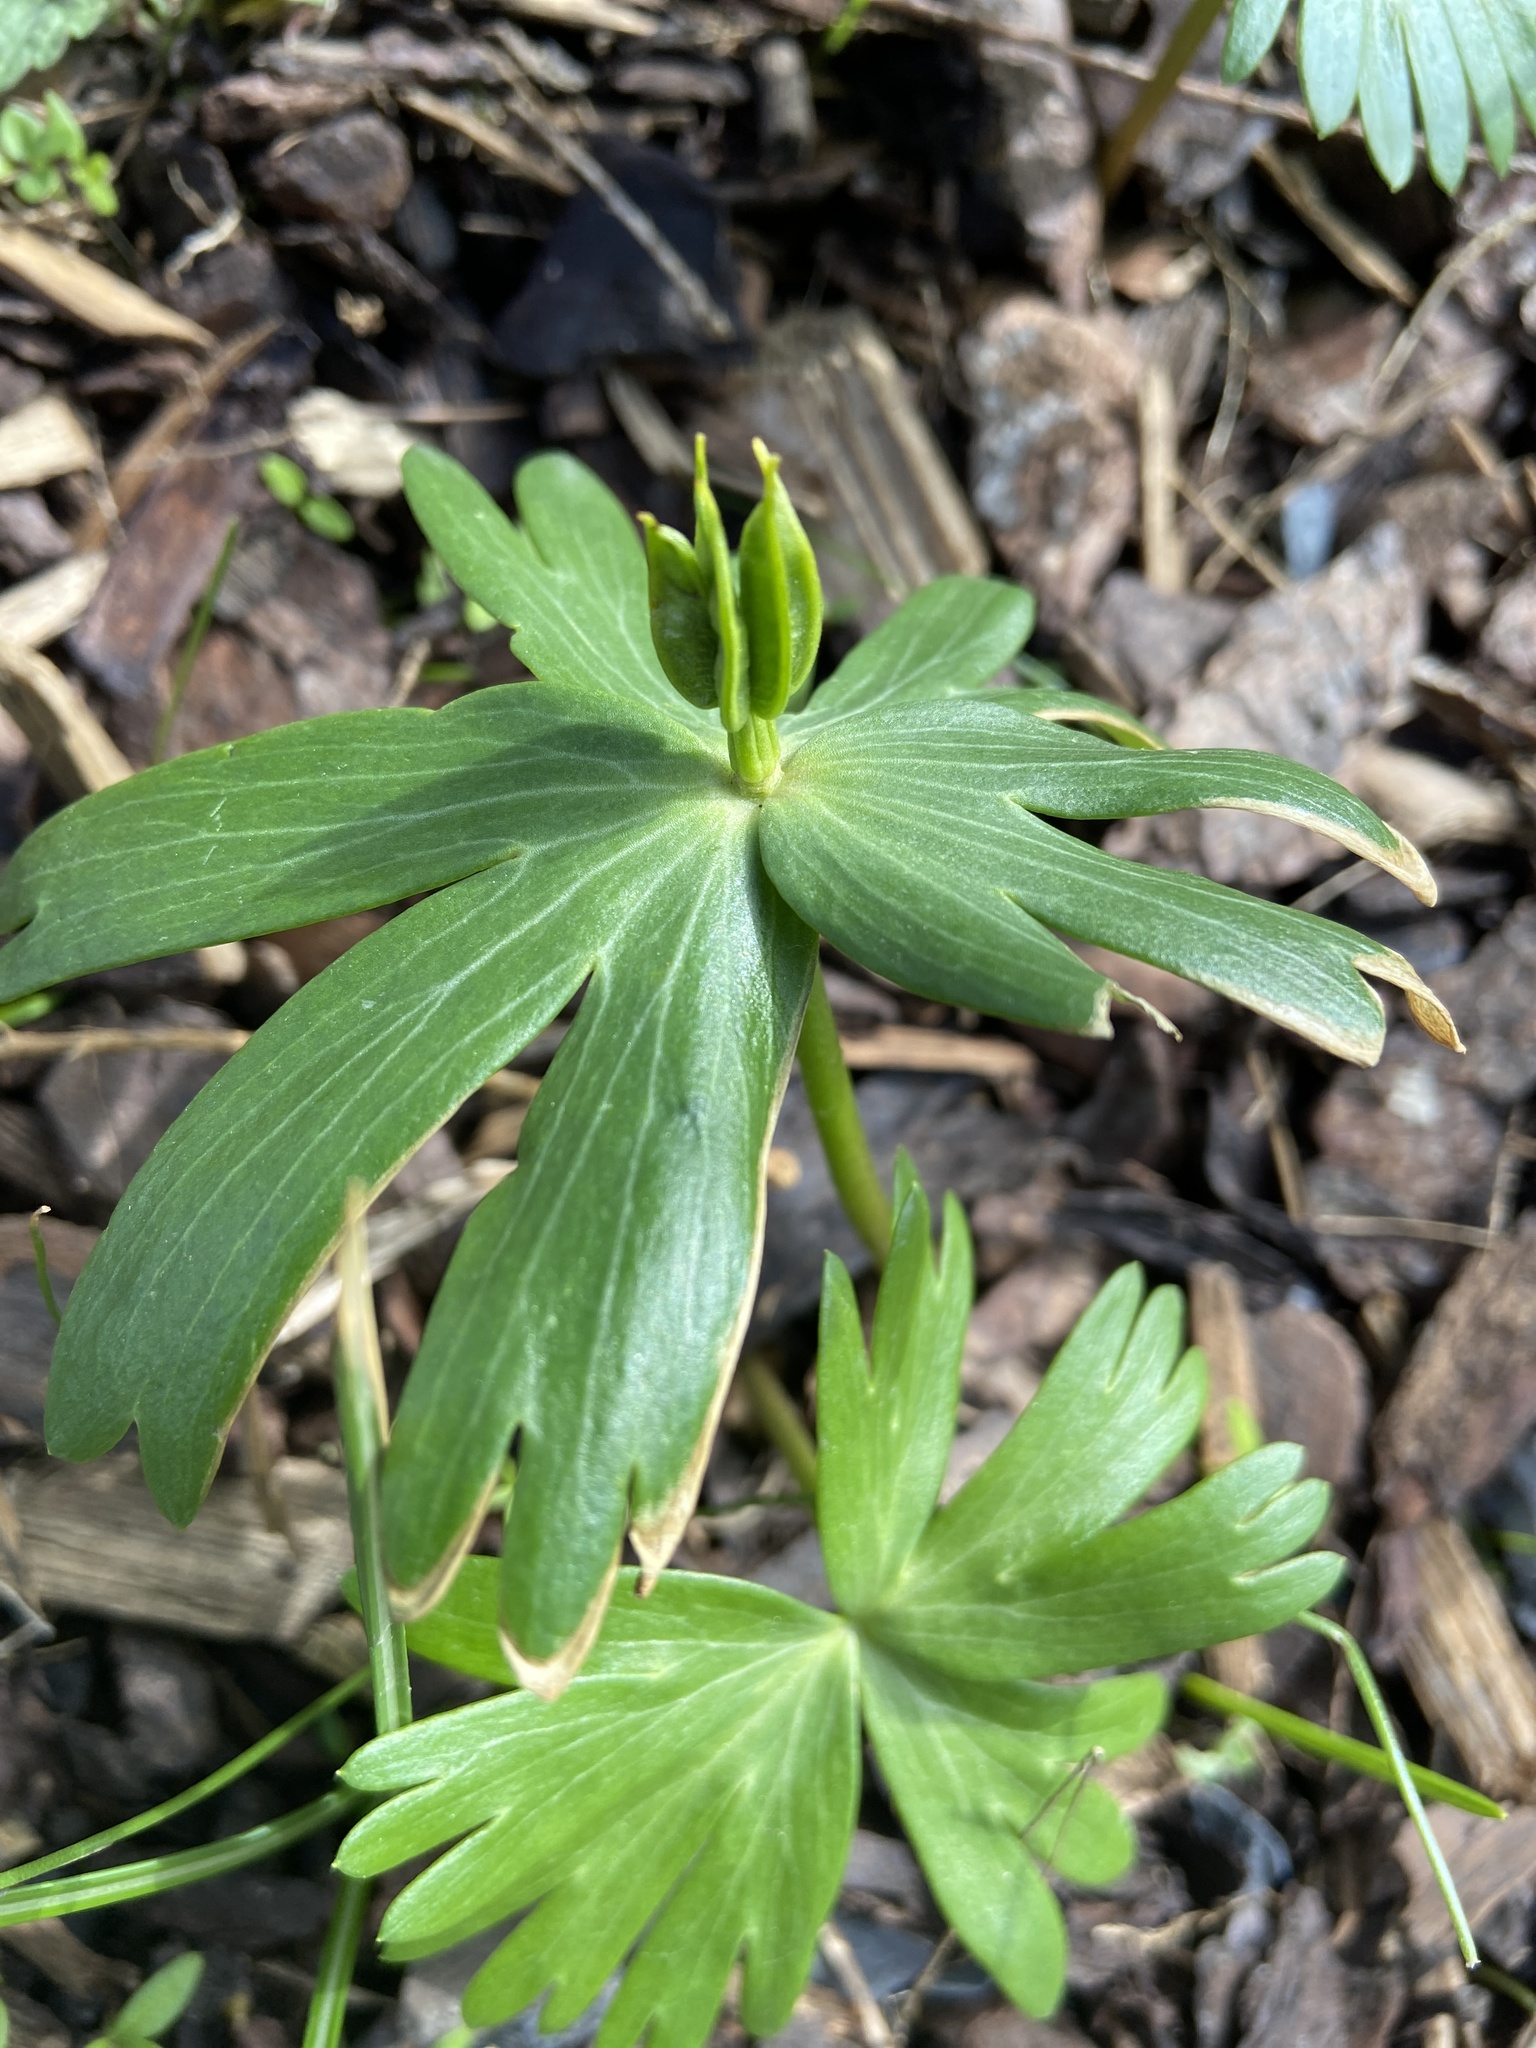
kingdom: Plantae
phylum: Tracheophyta
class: Magnoliopsida
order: Ranunculales
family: Ranunculaceae
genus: Eranthis
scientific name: Eranthis hyemalis
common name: Winter aconite
